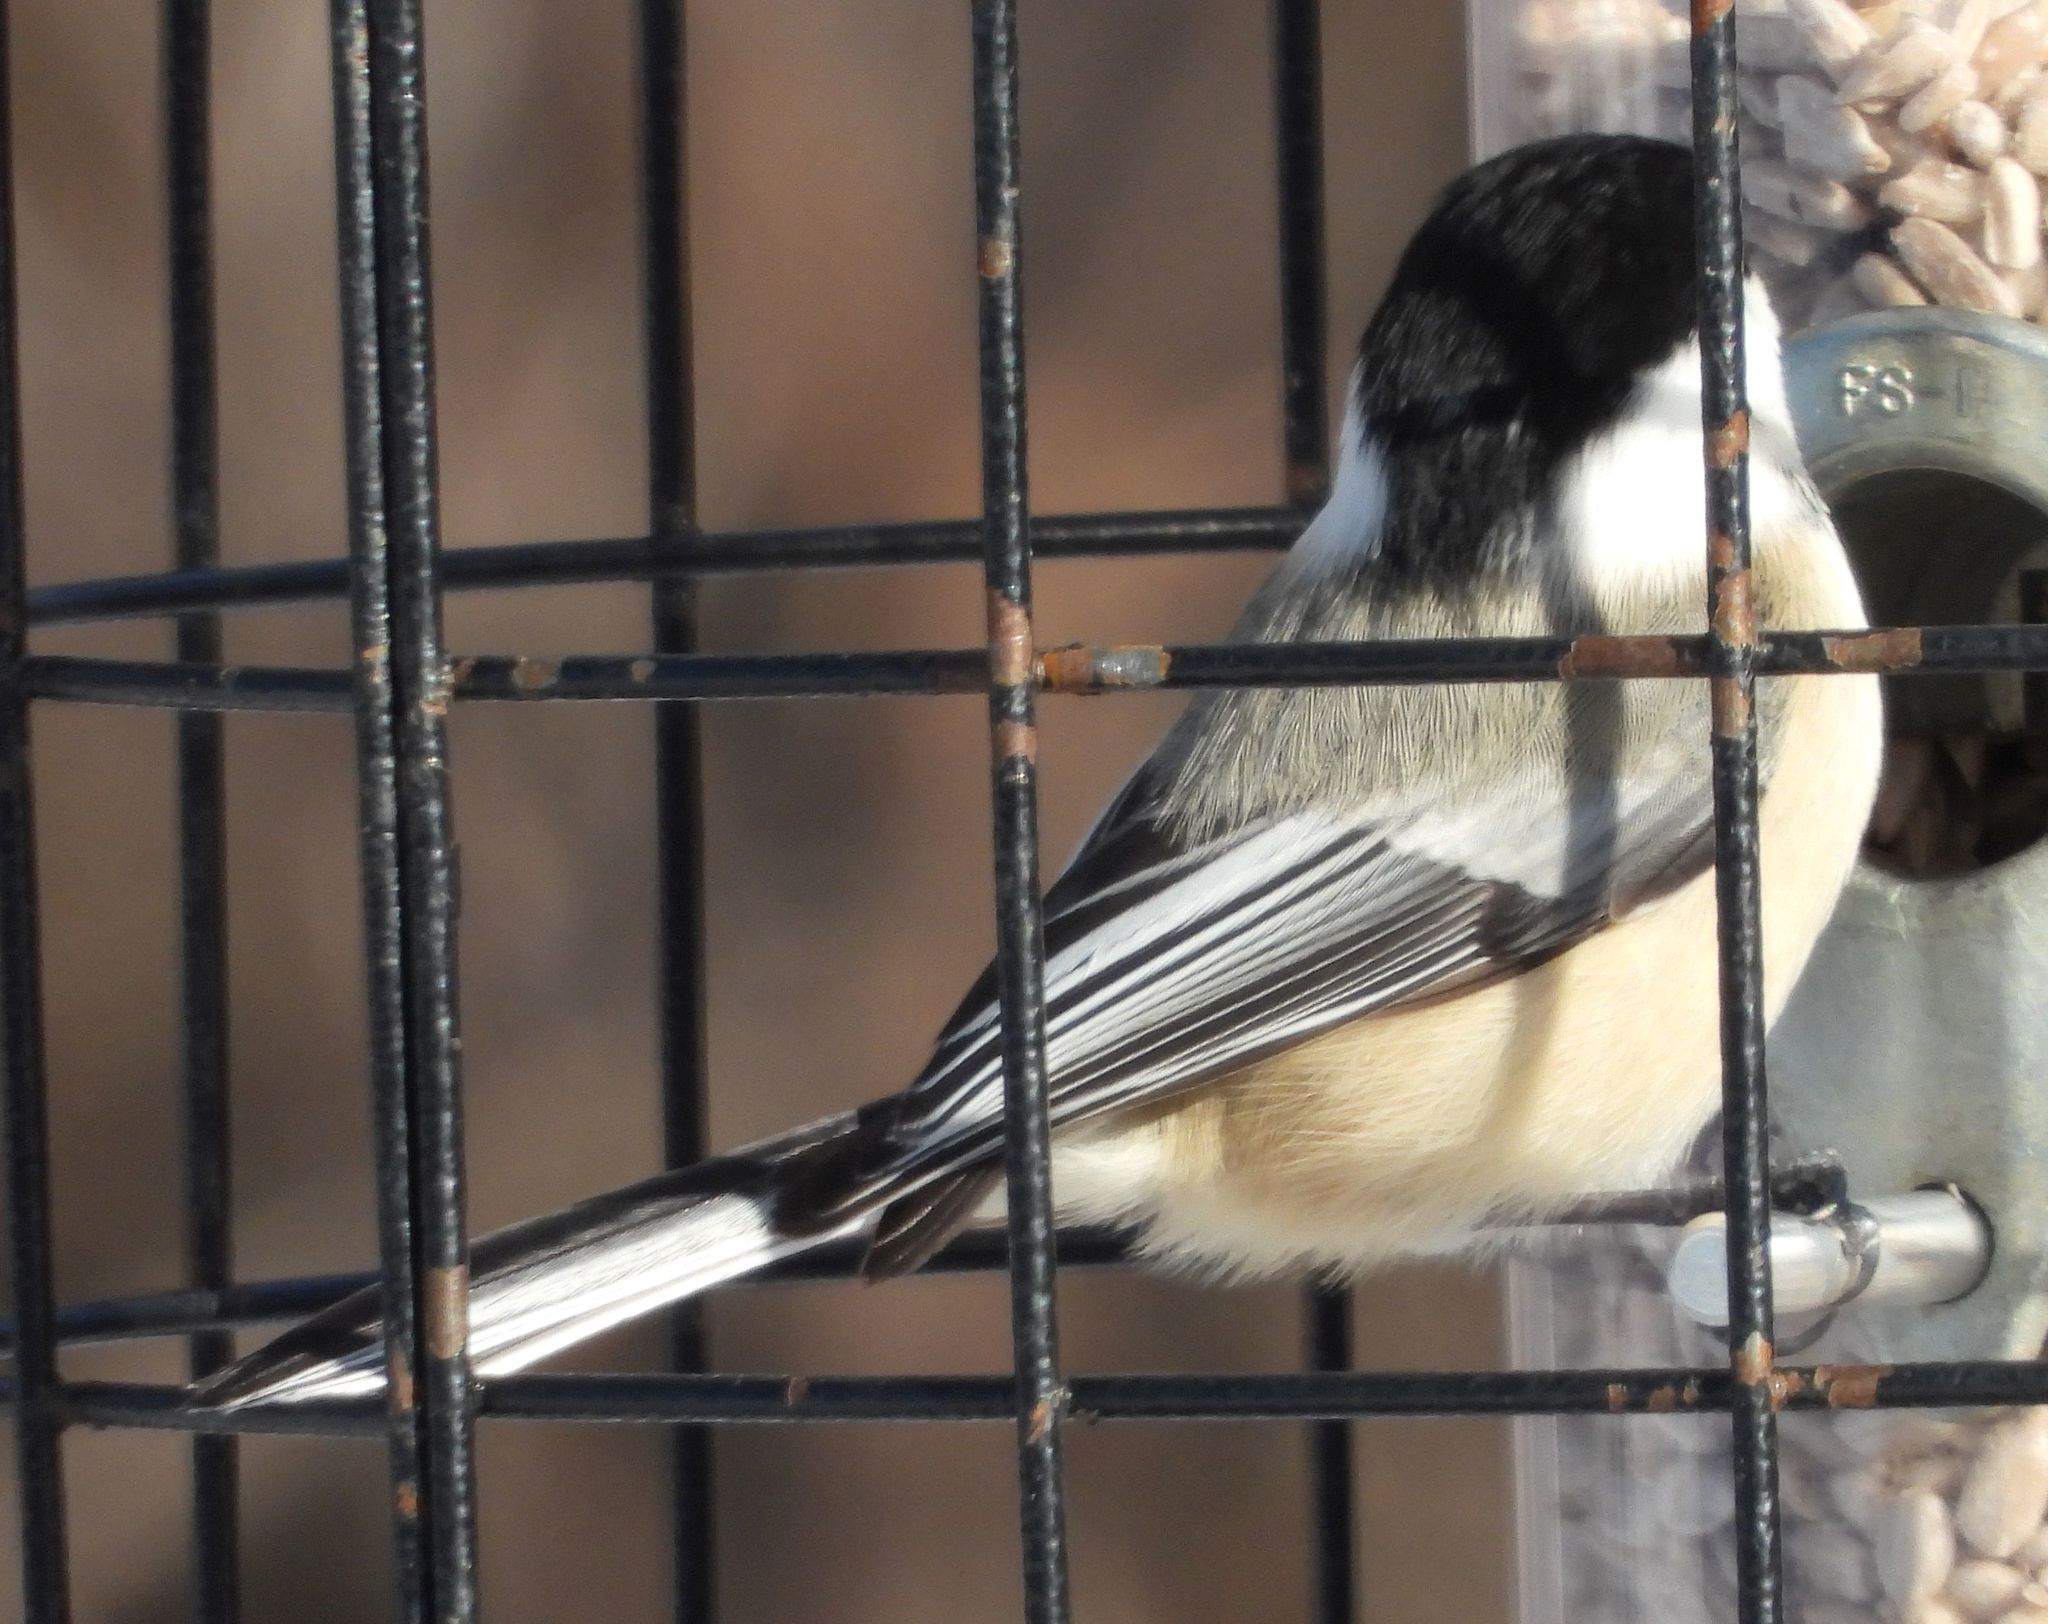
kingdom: Animalia
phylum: Chordata
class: Aves
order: Passeriformes
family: Paridae
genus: Poecile
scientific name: Poecile atricapillus
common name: Black-capped chickadee
